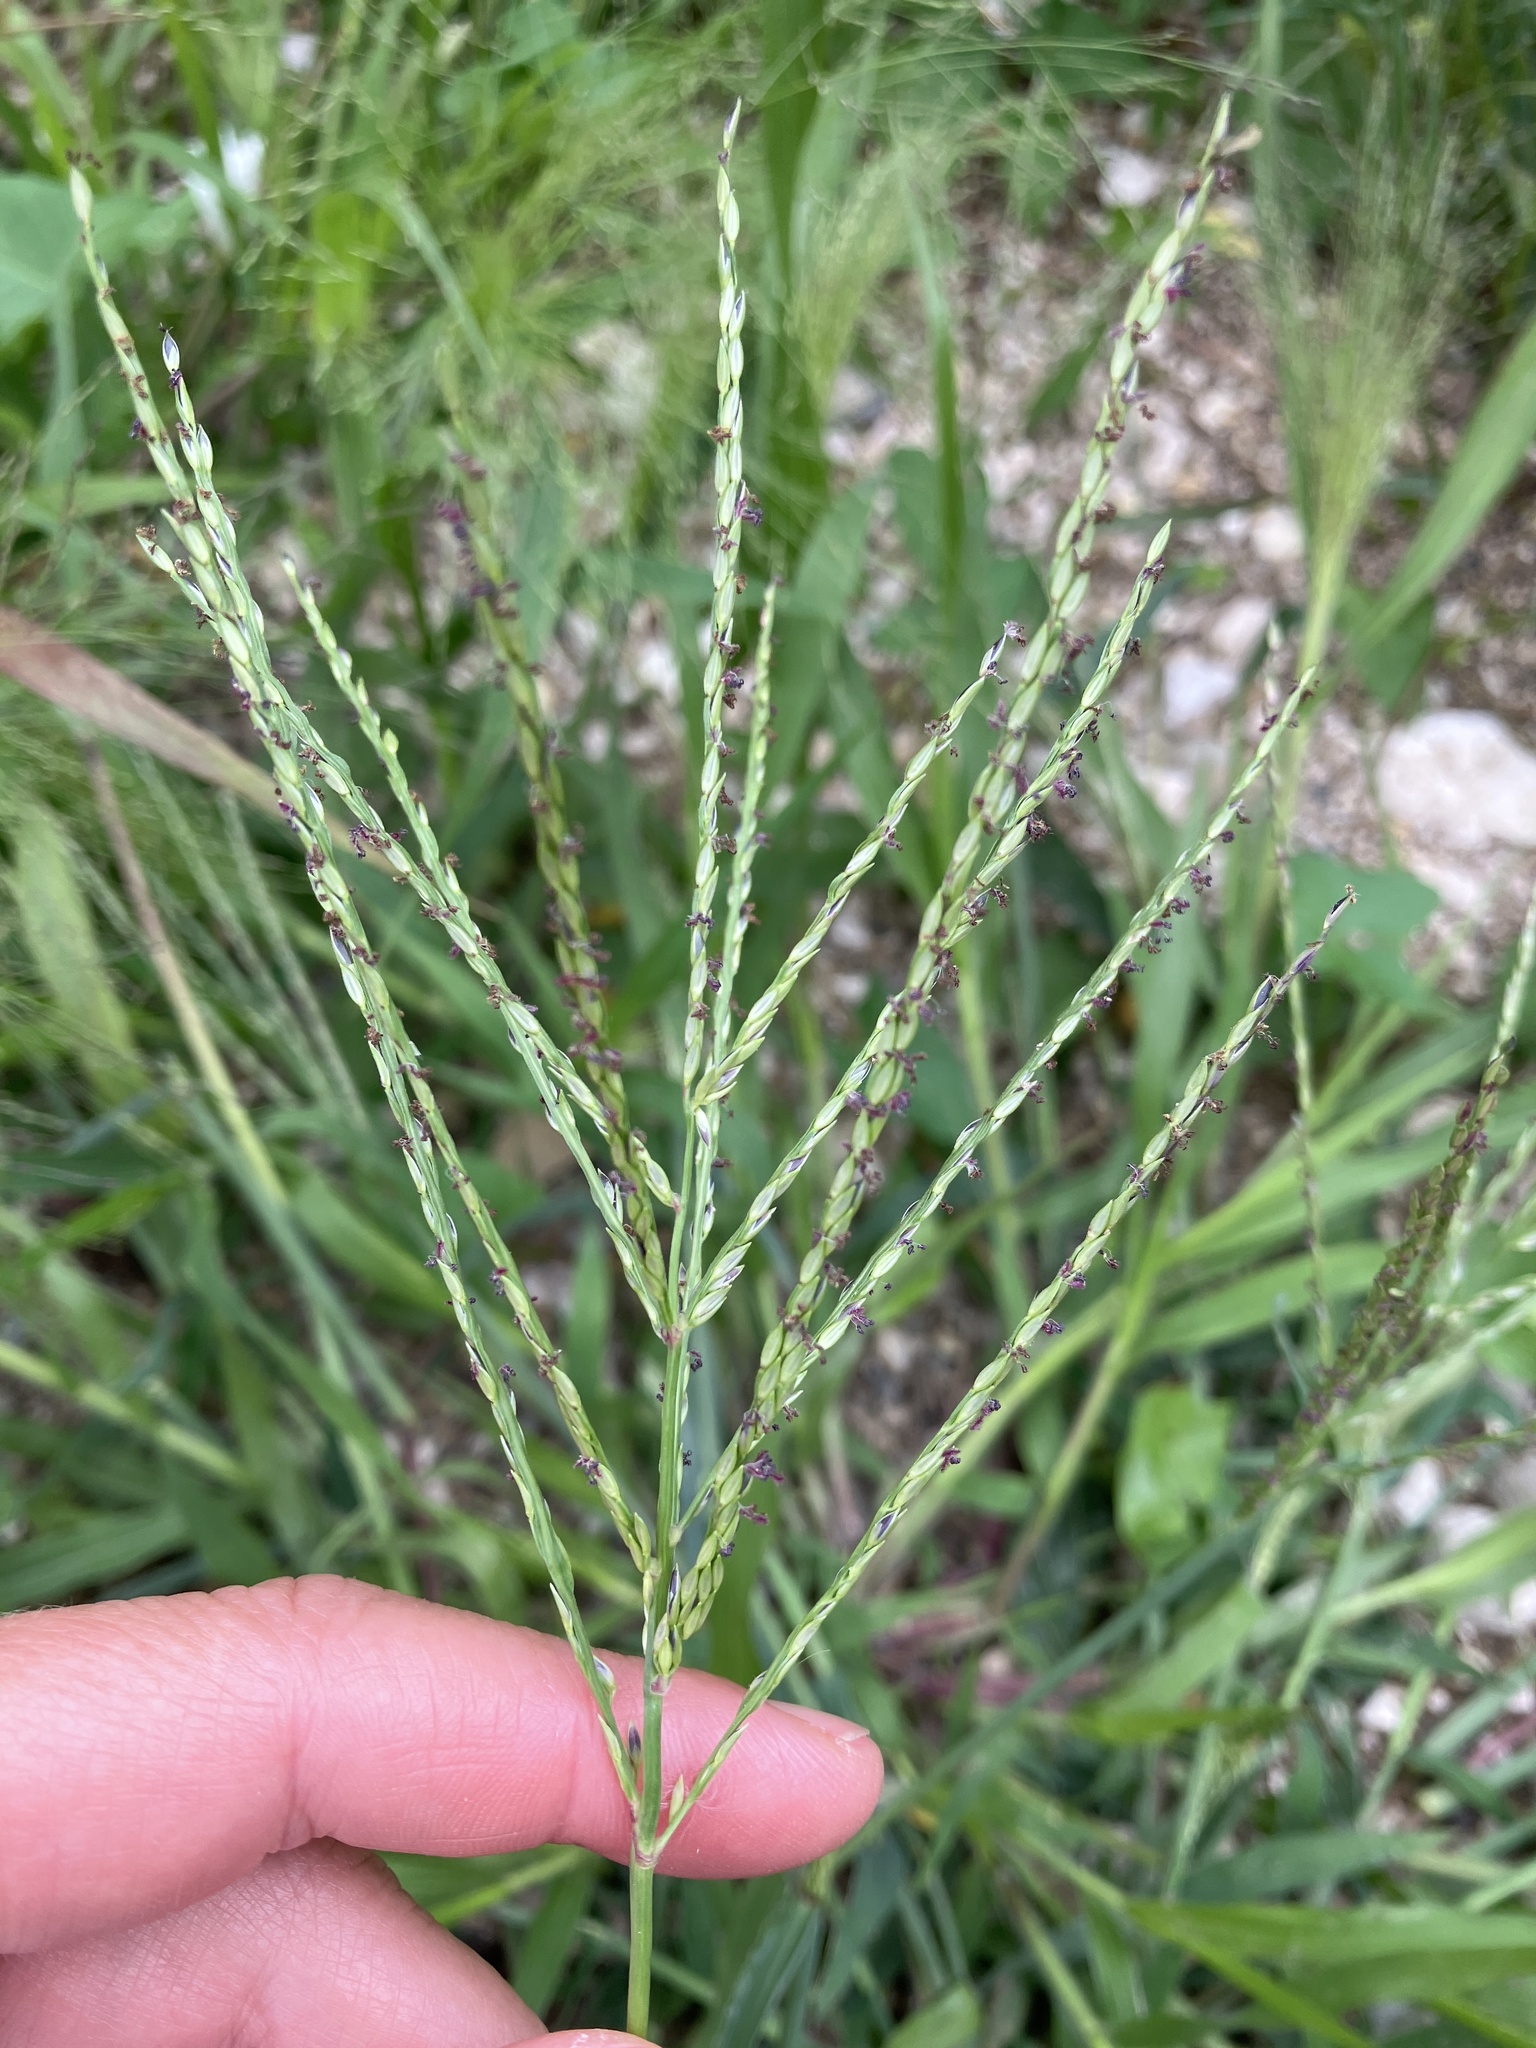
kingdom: Plantae
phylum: Tracheophyta
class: Liliopsida
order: Poales
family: Poaceae
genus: Digitaria
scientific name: Digitaria sanguinalis
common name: Hairy crabgrass
